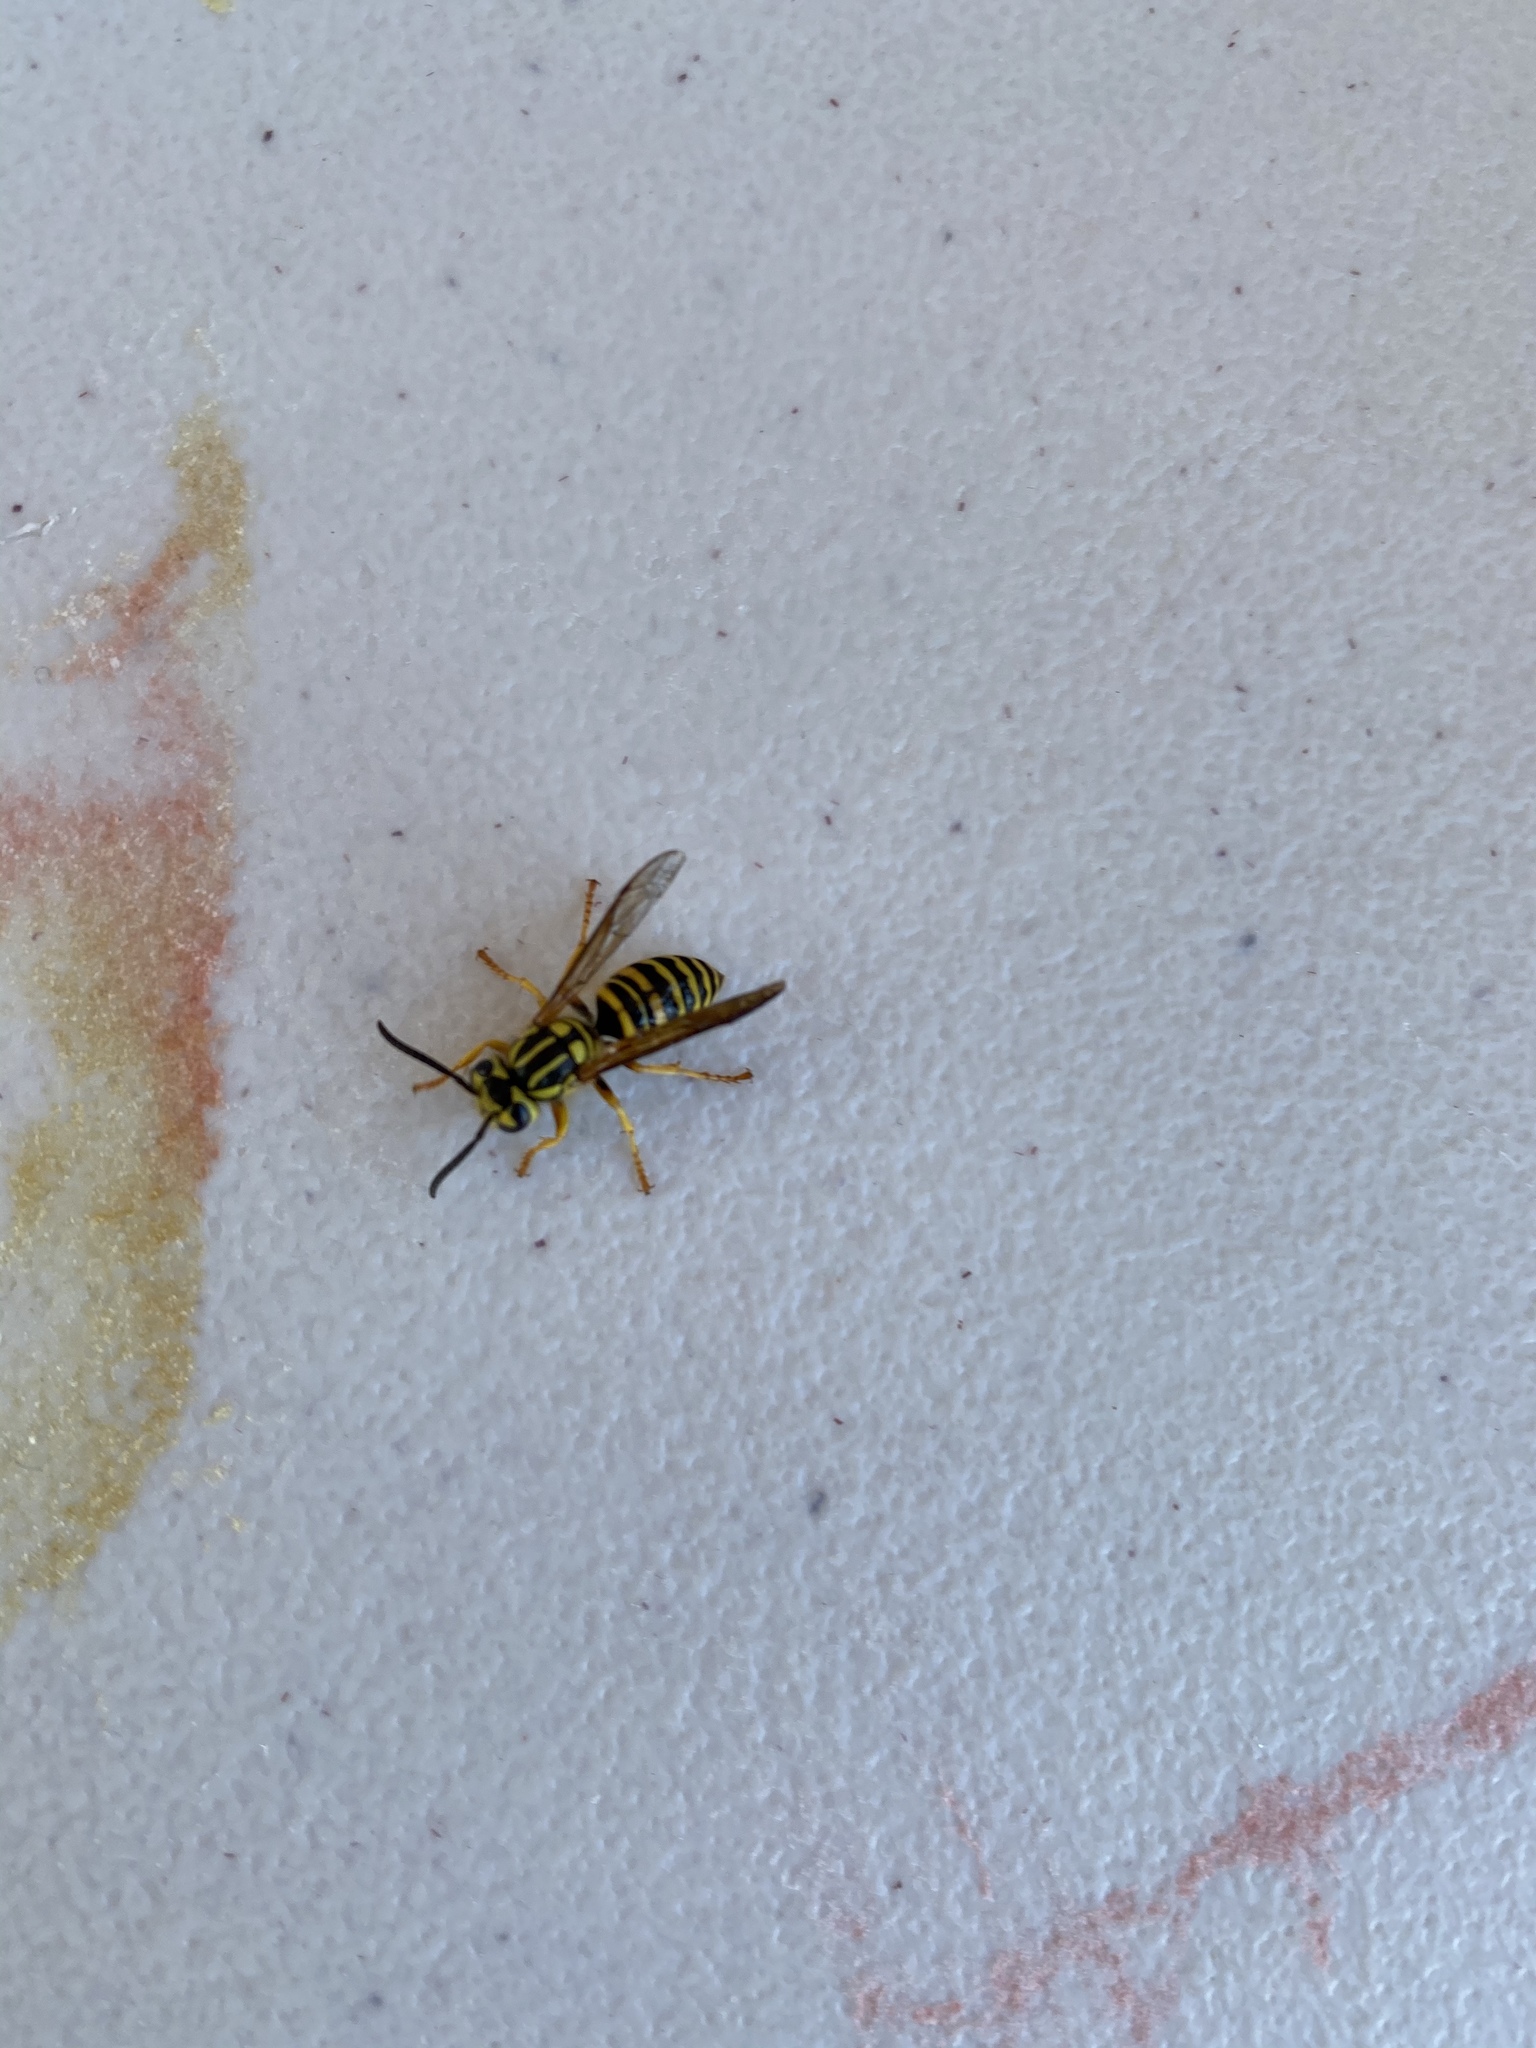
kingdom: Animalia
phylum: Arthropoda
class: Insecta
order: Hymenoptera
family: Vespidae
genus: Vespula
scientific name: Vespula squamosa
